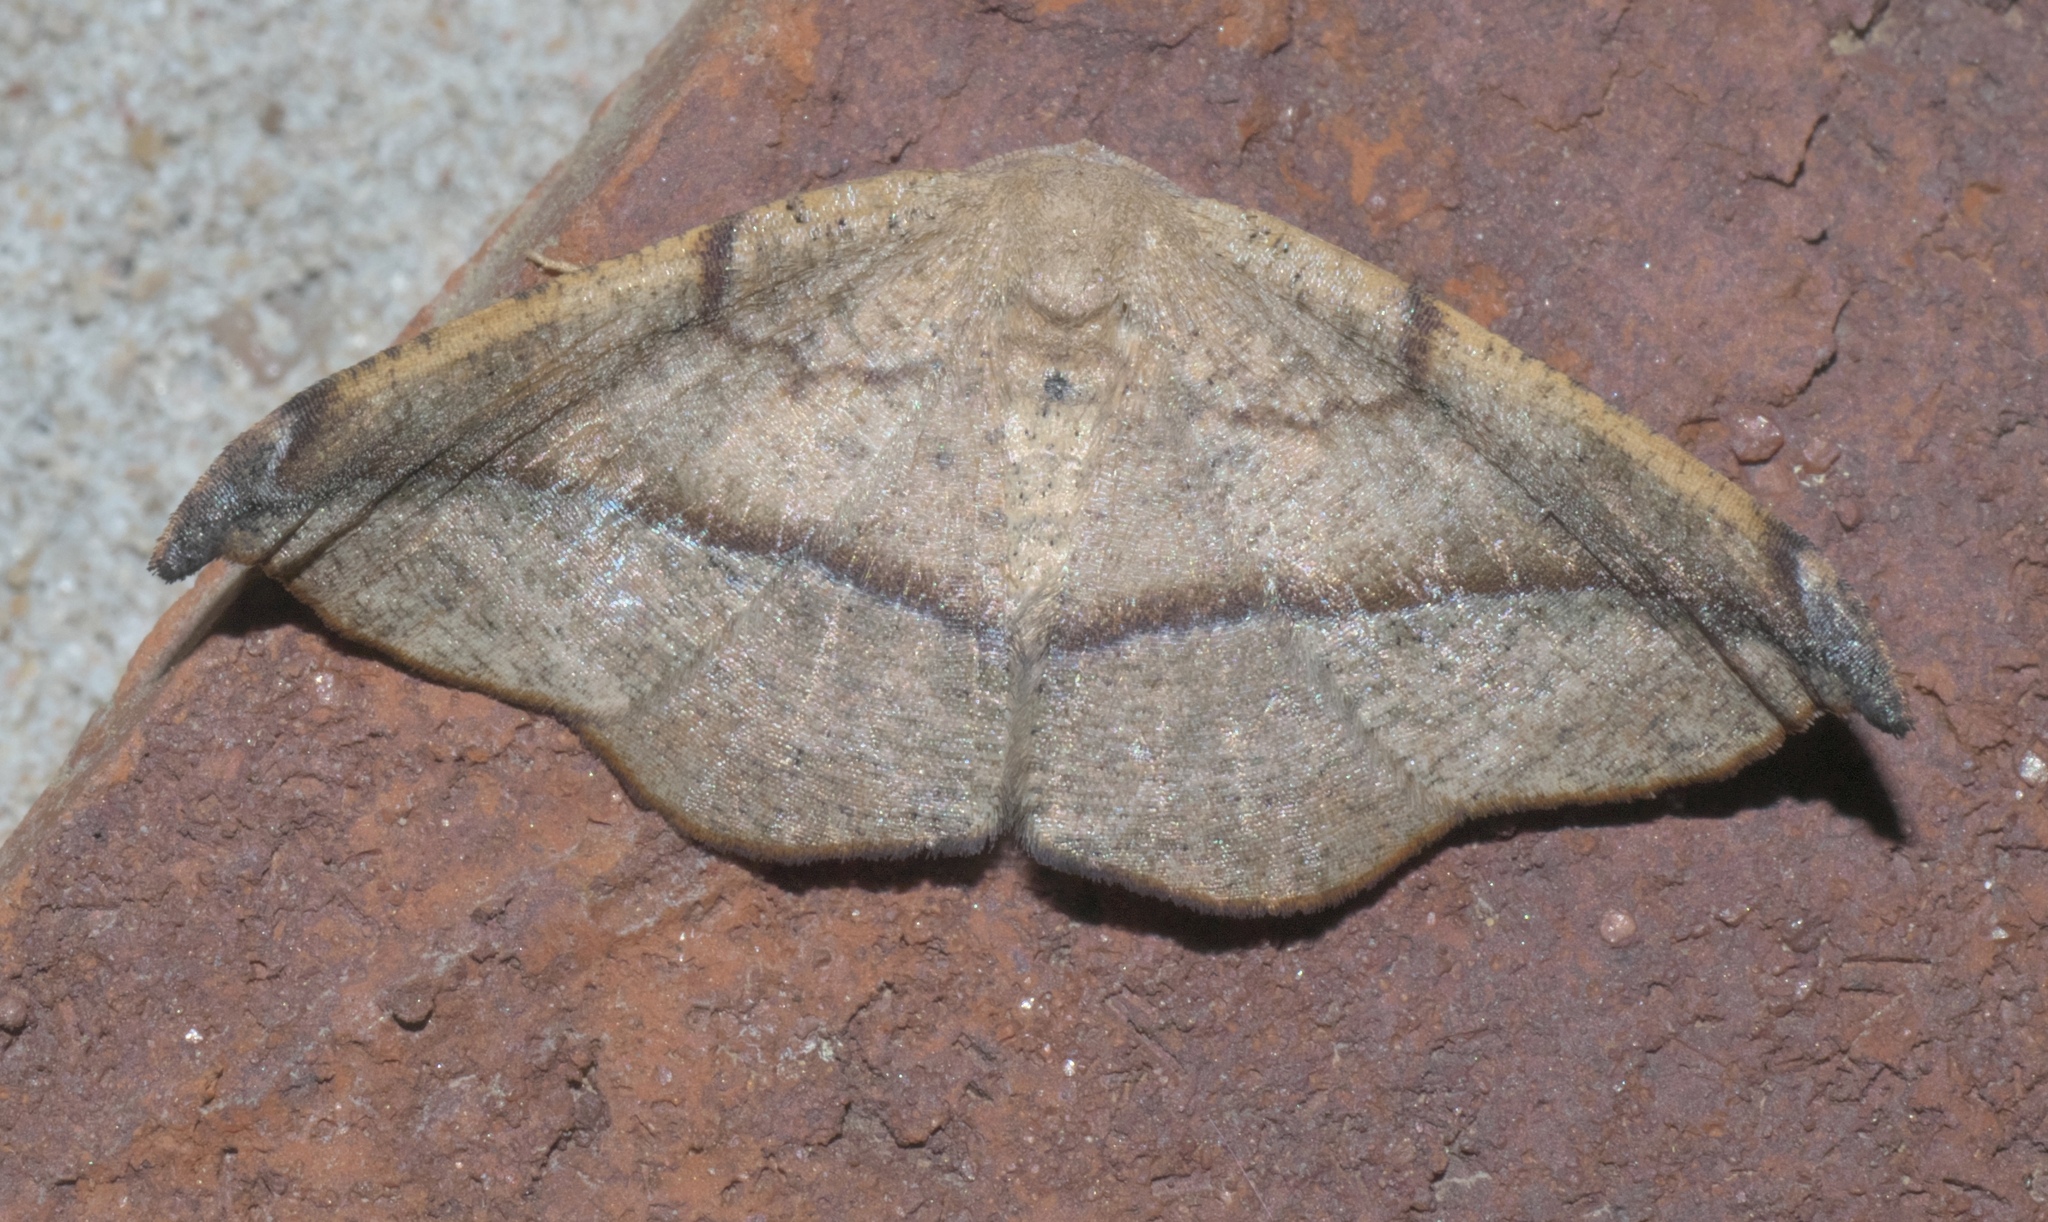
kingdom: Animalia
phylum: Arthropoda
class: Insecta
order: Lepidoptera
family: Geometridae
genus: Patalene
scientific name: Patalene olyzonaria
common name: Juniper geometer moth
